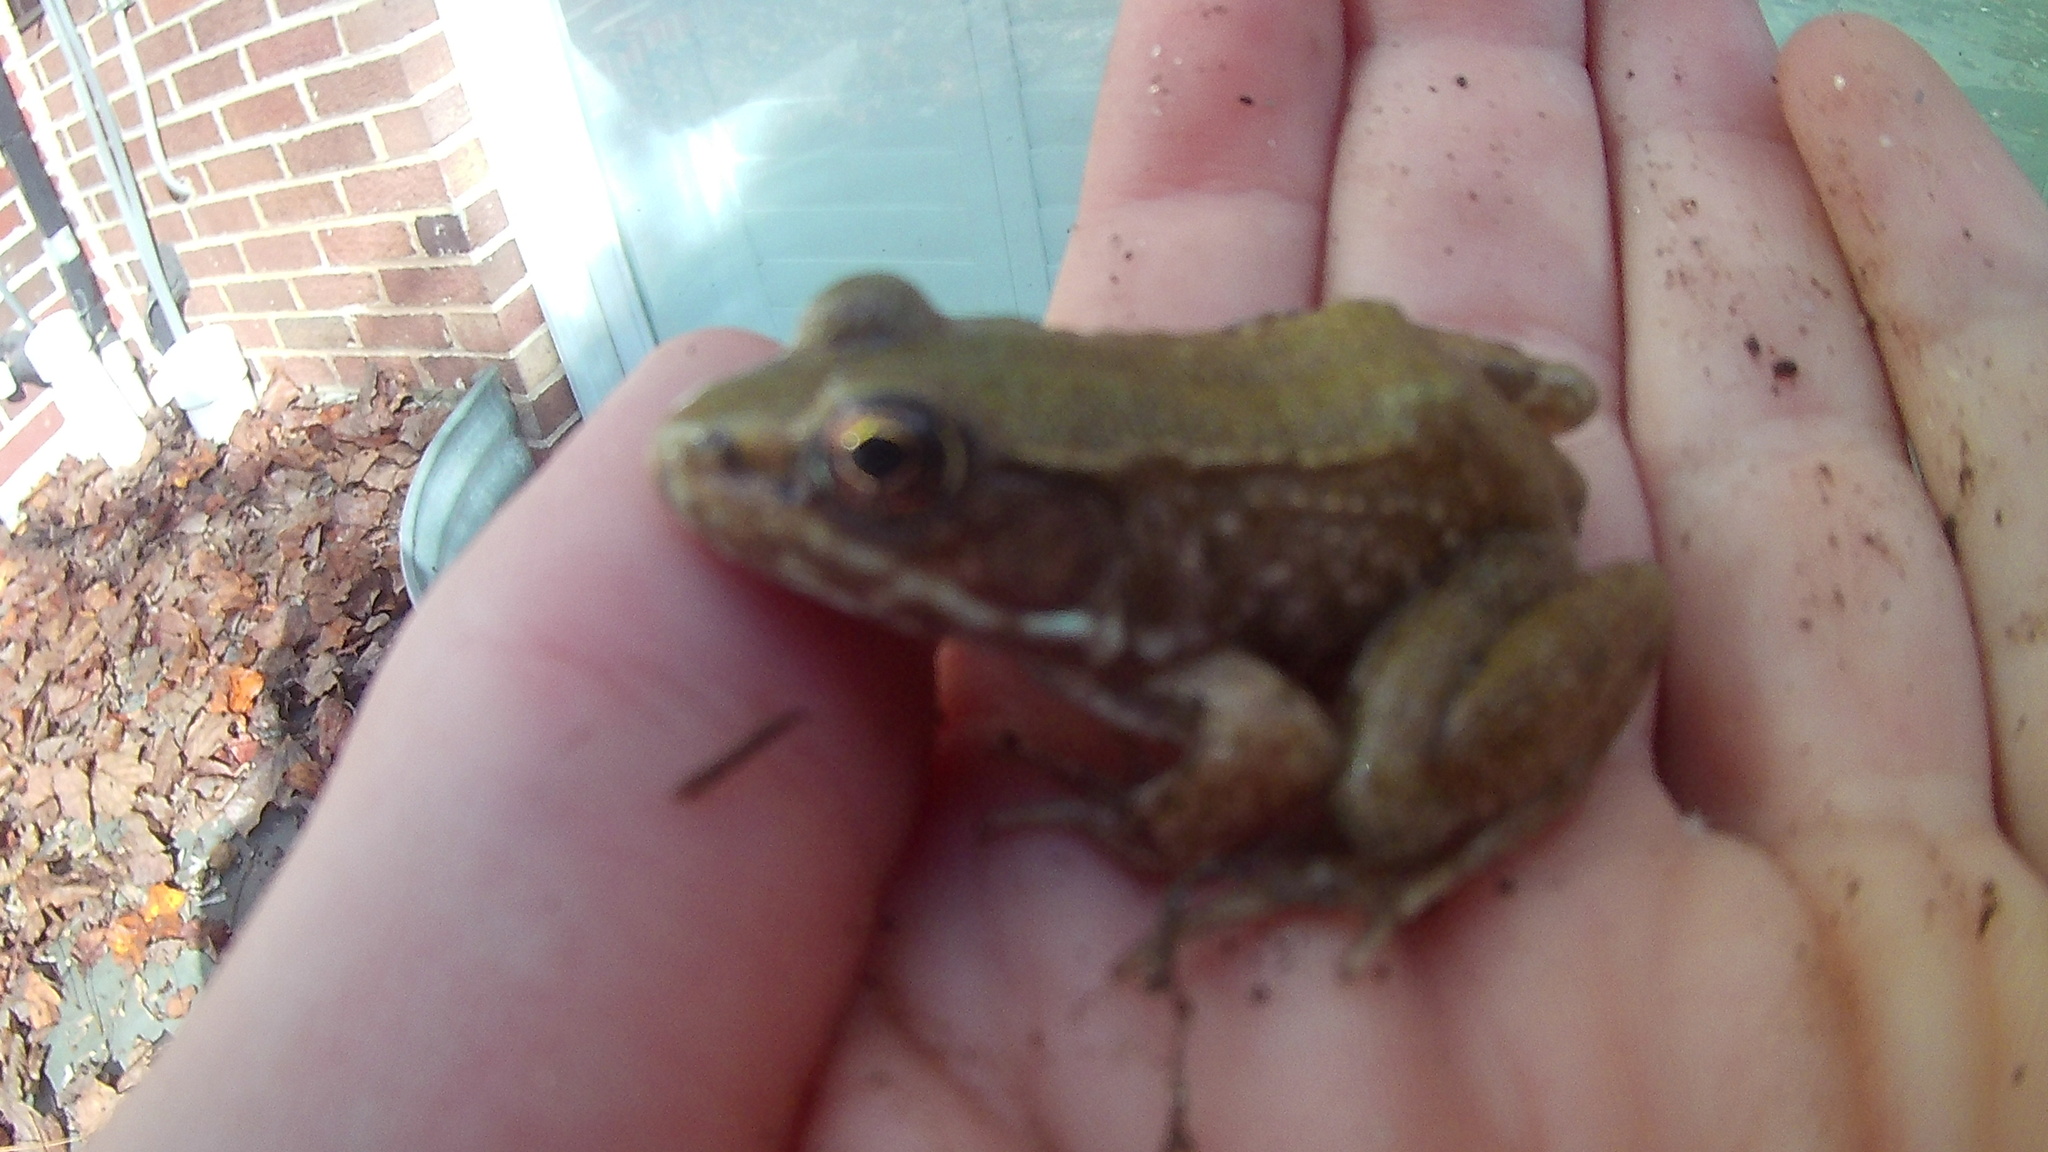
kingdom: Animalia
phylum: Chordata
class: Amphibia
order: Anura
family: Ranidae
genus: Lithobates
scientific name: Lithobates clamitans
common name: Green frog
